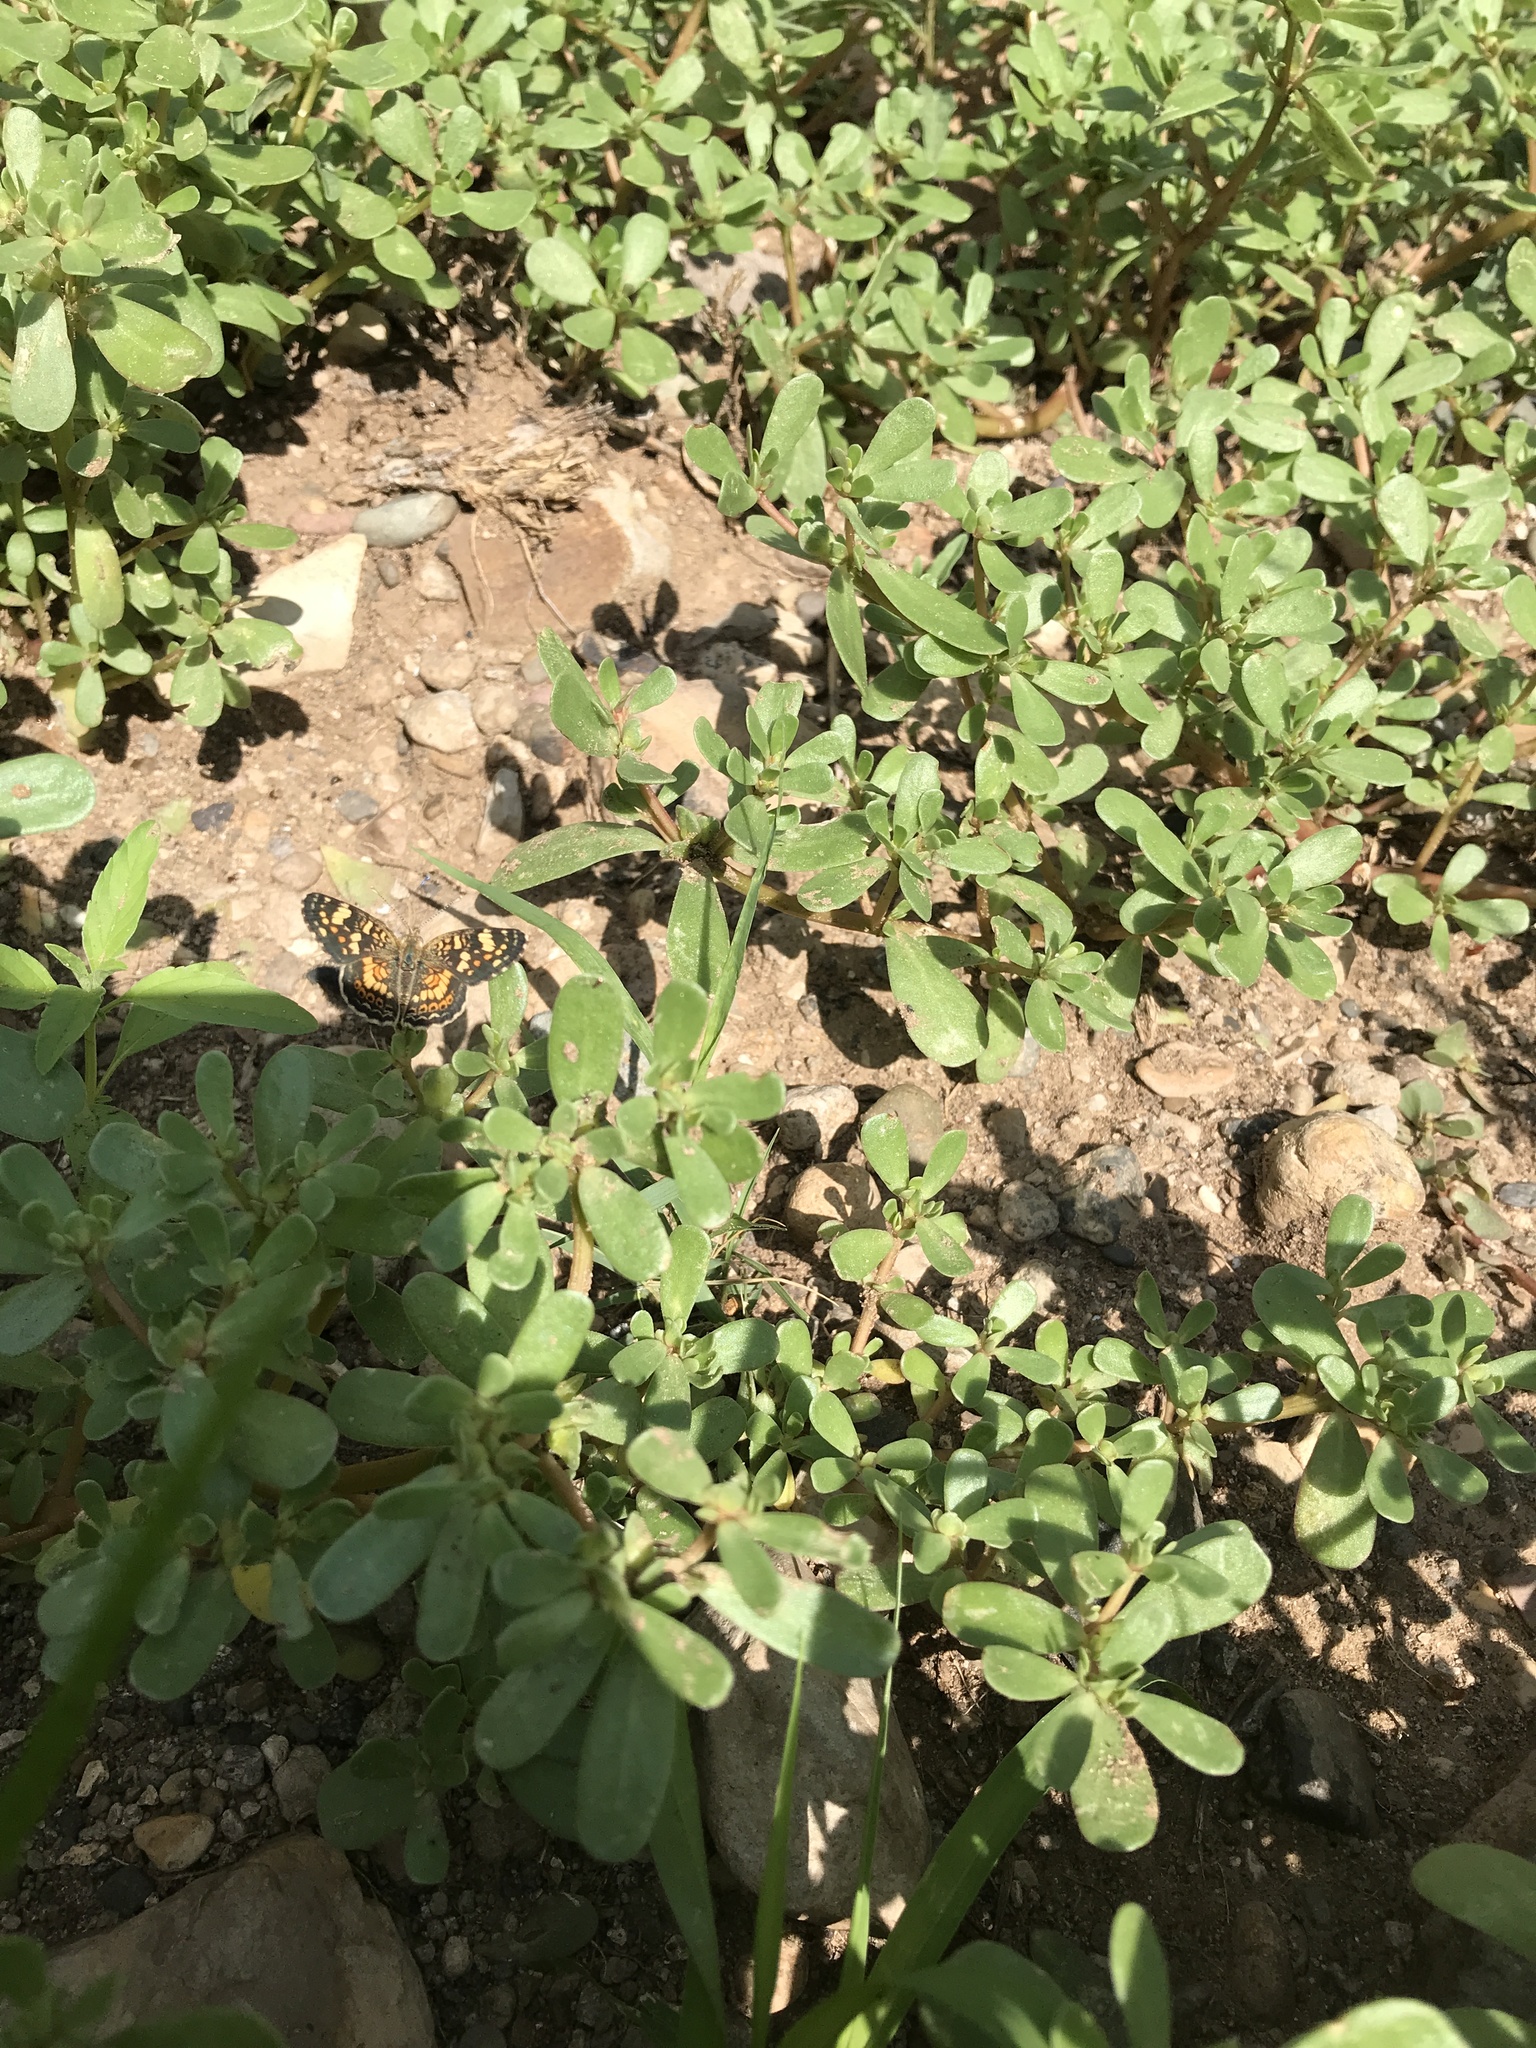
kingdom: Animalia
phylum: Arthropoda
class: Insecta
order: Lepidoptera
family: Nymphalidae
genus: Phyciodes
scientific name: Phyciodes picta
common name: Painted crescent
